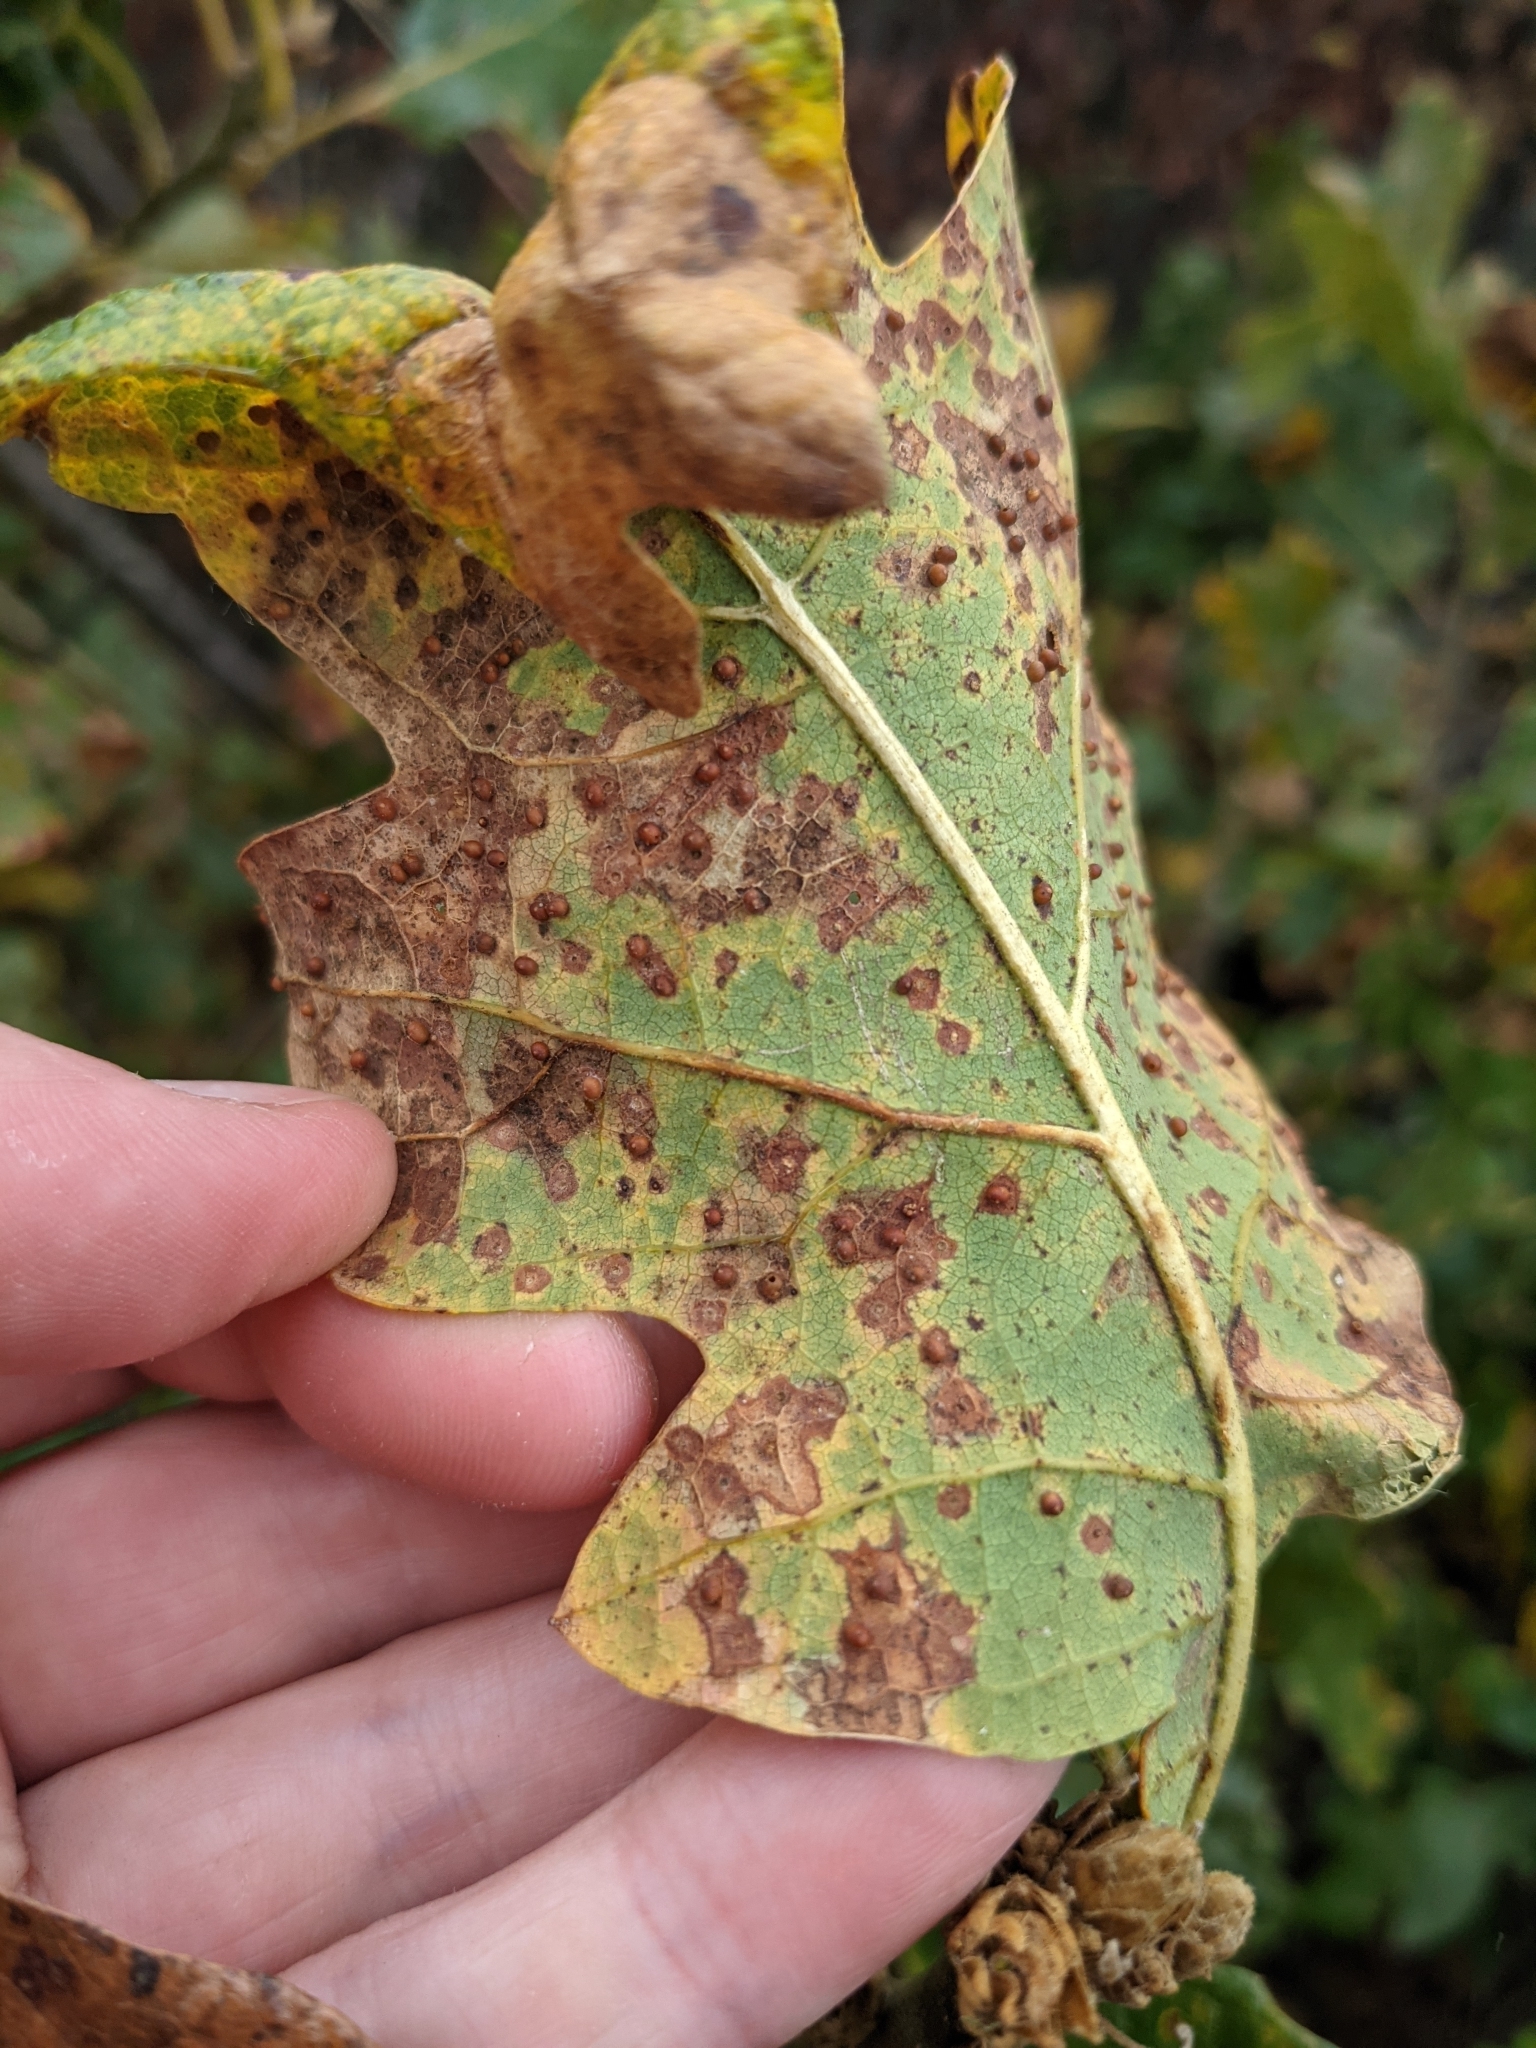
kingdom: Animalia
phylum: Arthropoda
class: Insecta
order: Hymenoptera
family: Cynipidae
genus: Neuroterus
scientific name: Neuroterus saltarius
